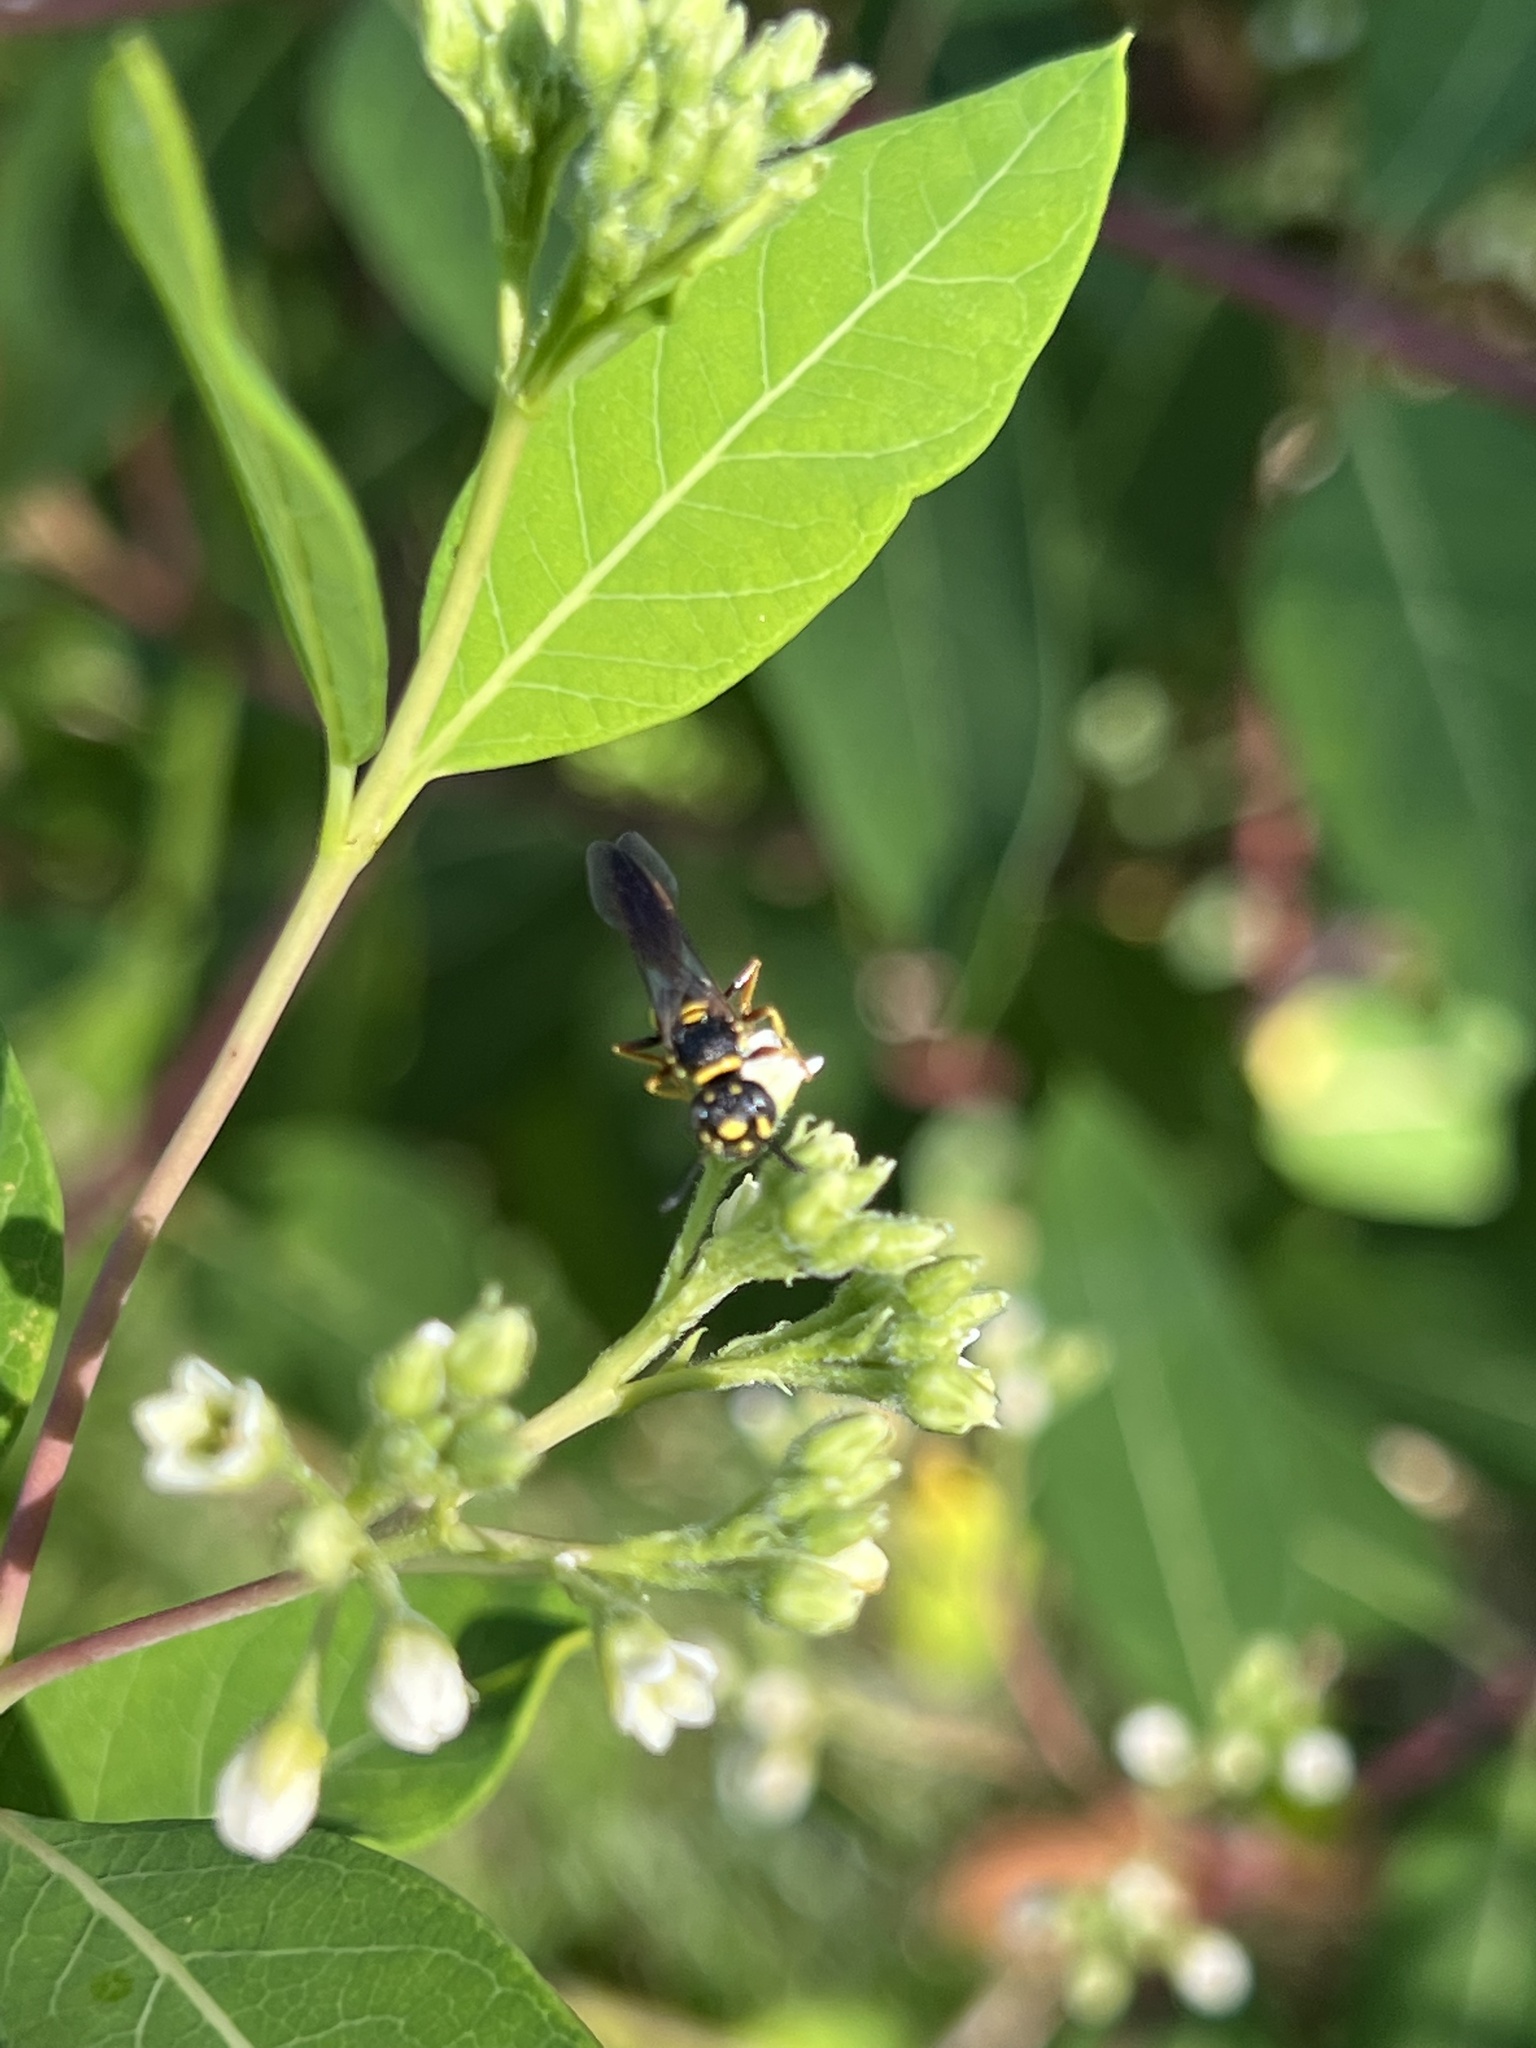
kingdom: Animalia
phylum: Arthropoda
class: Insecta
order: Hymenoptera
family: Crabronidae
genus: Philanthus
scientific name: Philanthus gibbosus
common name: Humped beewolf
